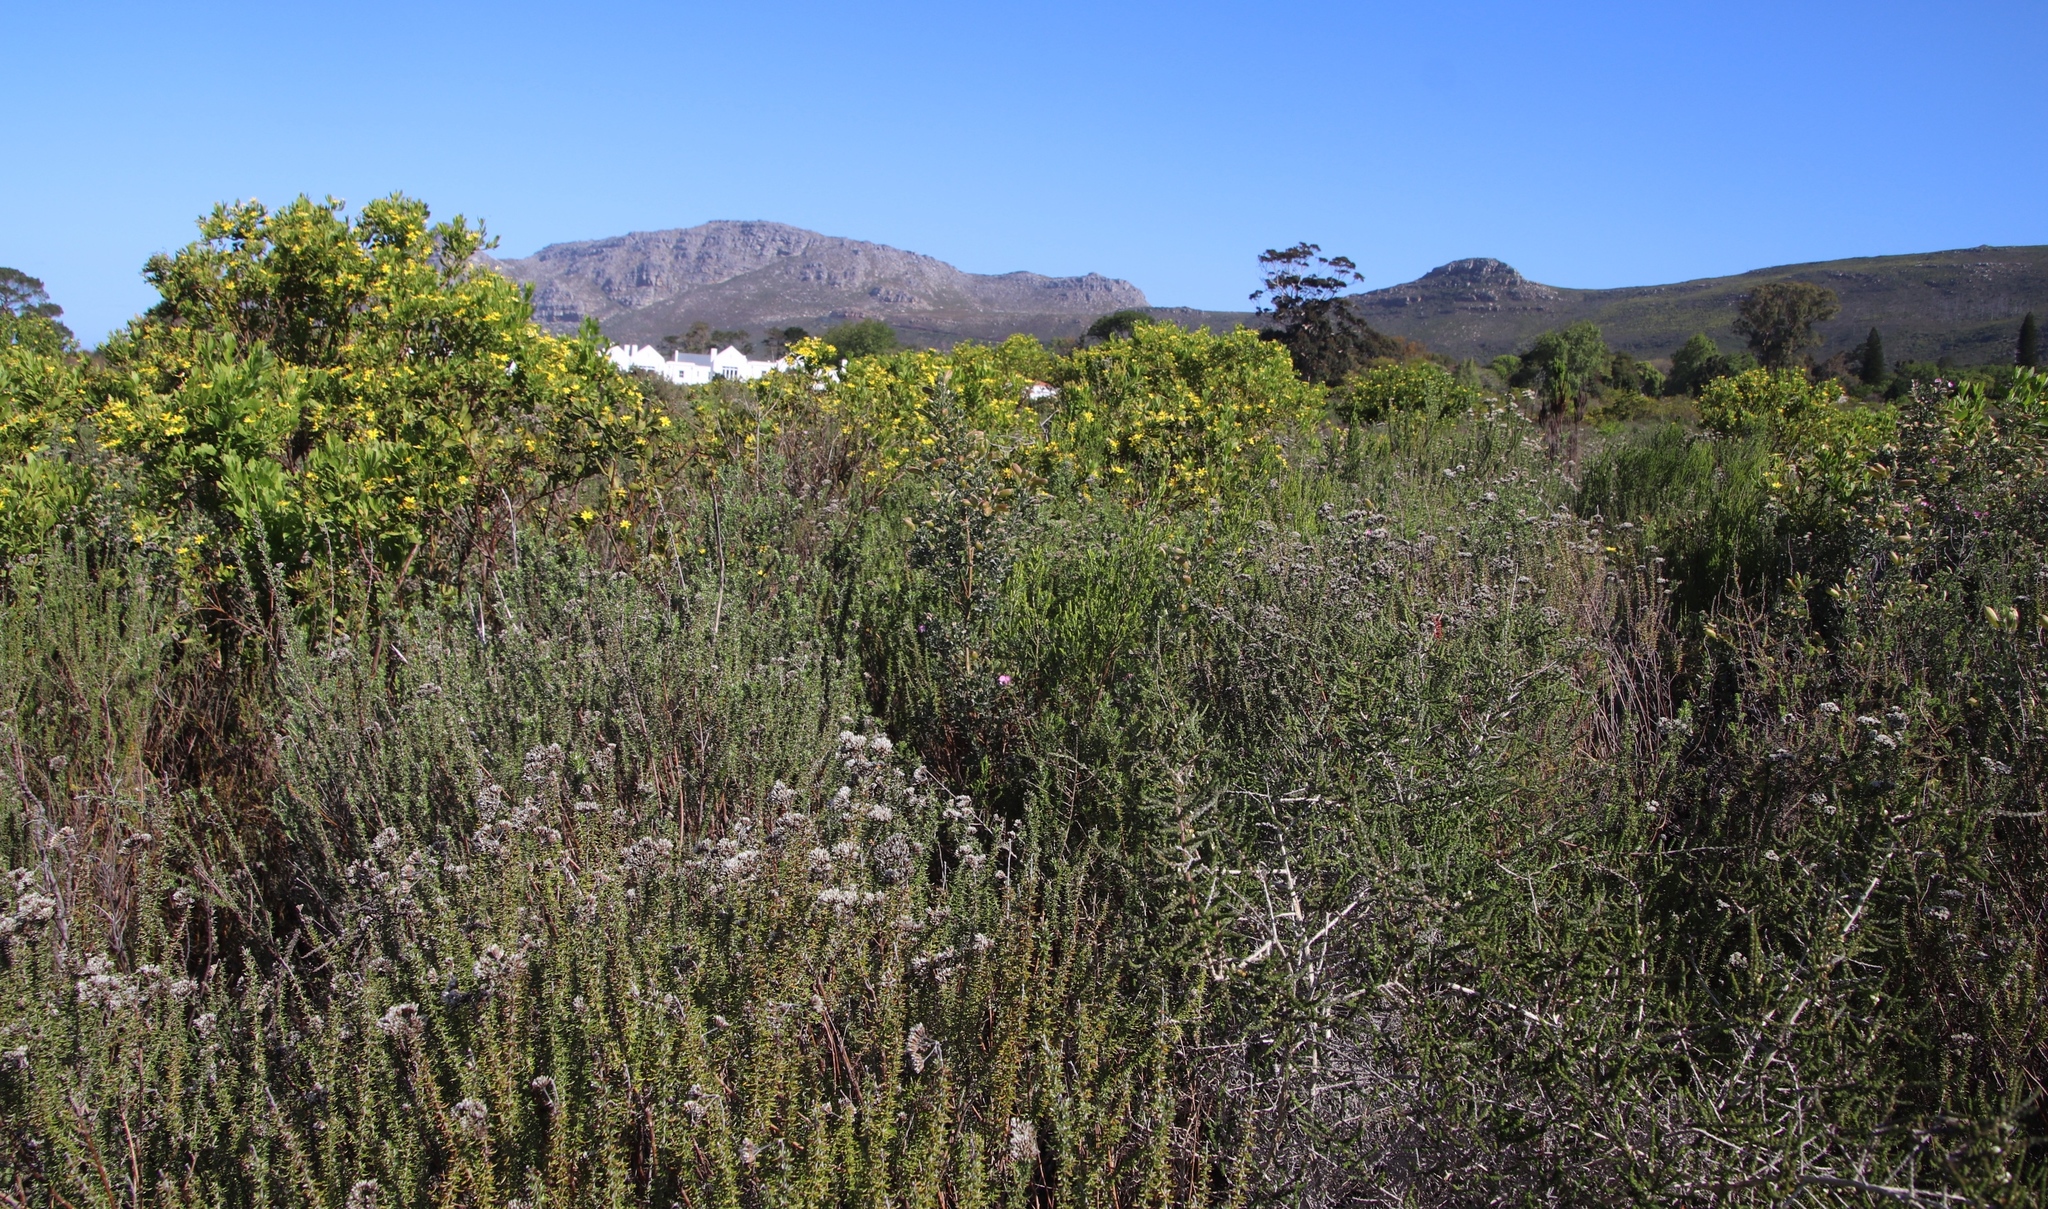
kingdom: Plantae
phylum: Tracheophyta
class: Magnoliopsida
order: Asterales
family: Asteraceae
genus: Metalasia
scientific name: Metalasia densa
